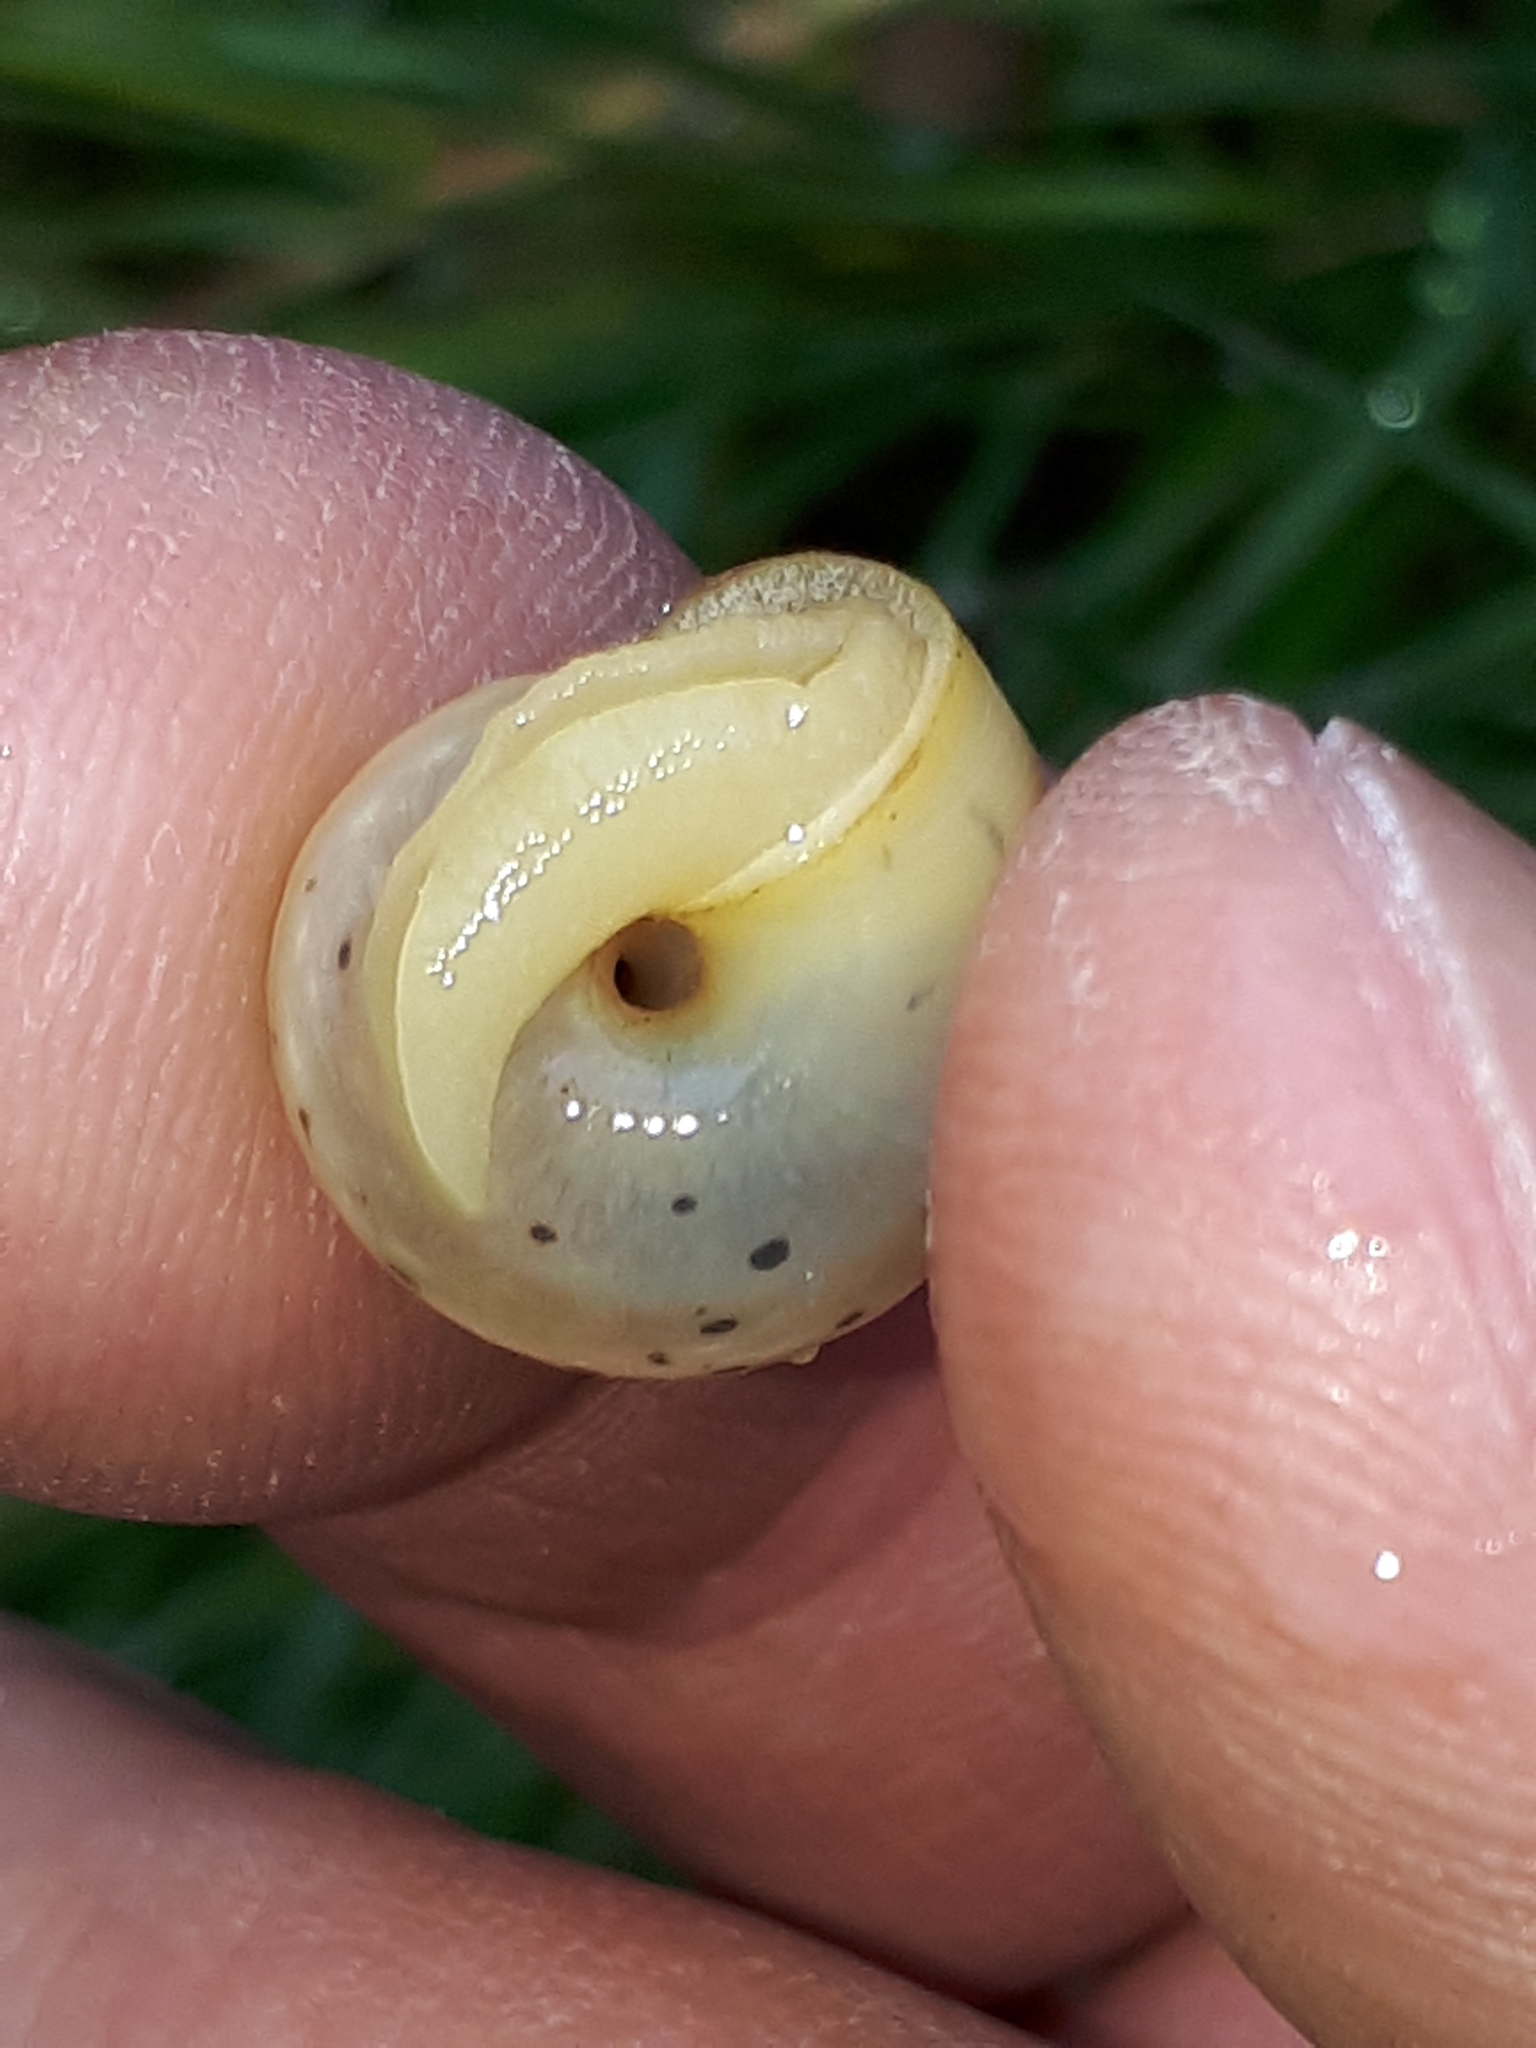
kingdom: Animalia
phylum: Mollusca
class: Gastropoda
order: Stylommatophora
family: Camaenidae
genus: Fruticicola
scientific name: Fruticicola fruticum
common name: Bush snail
